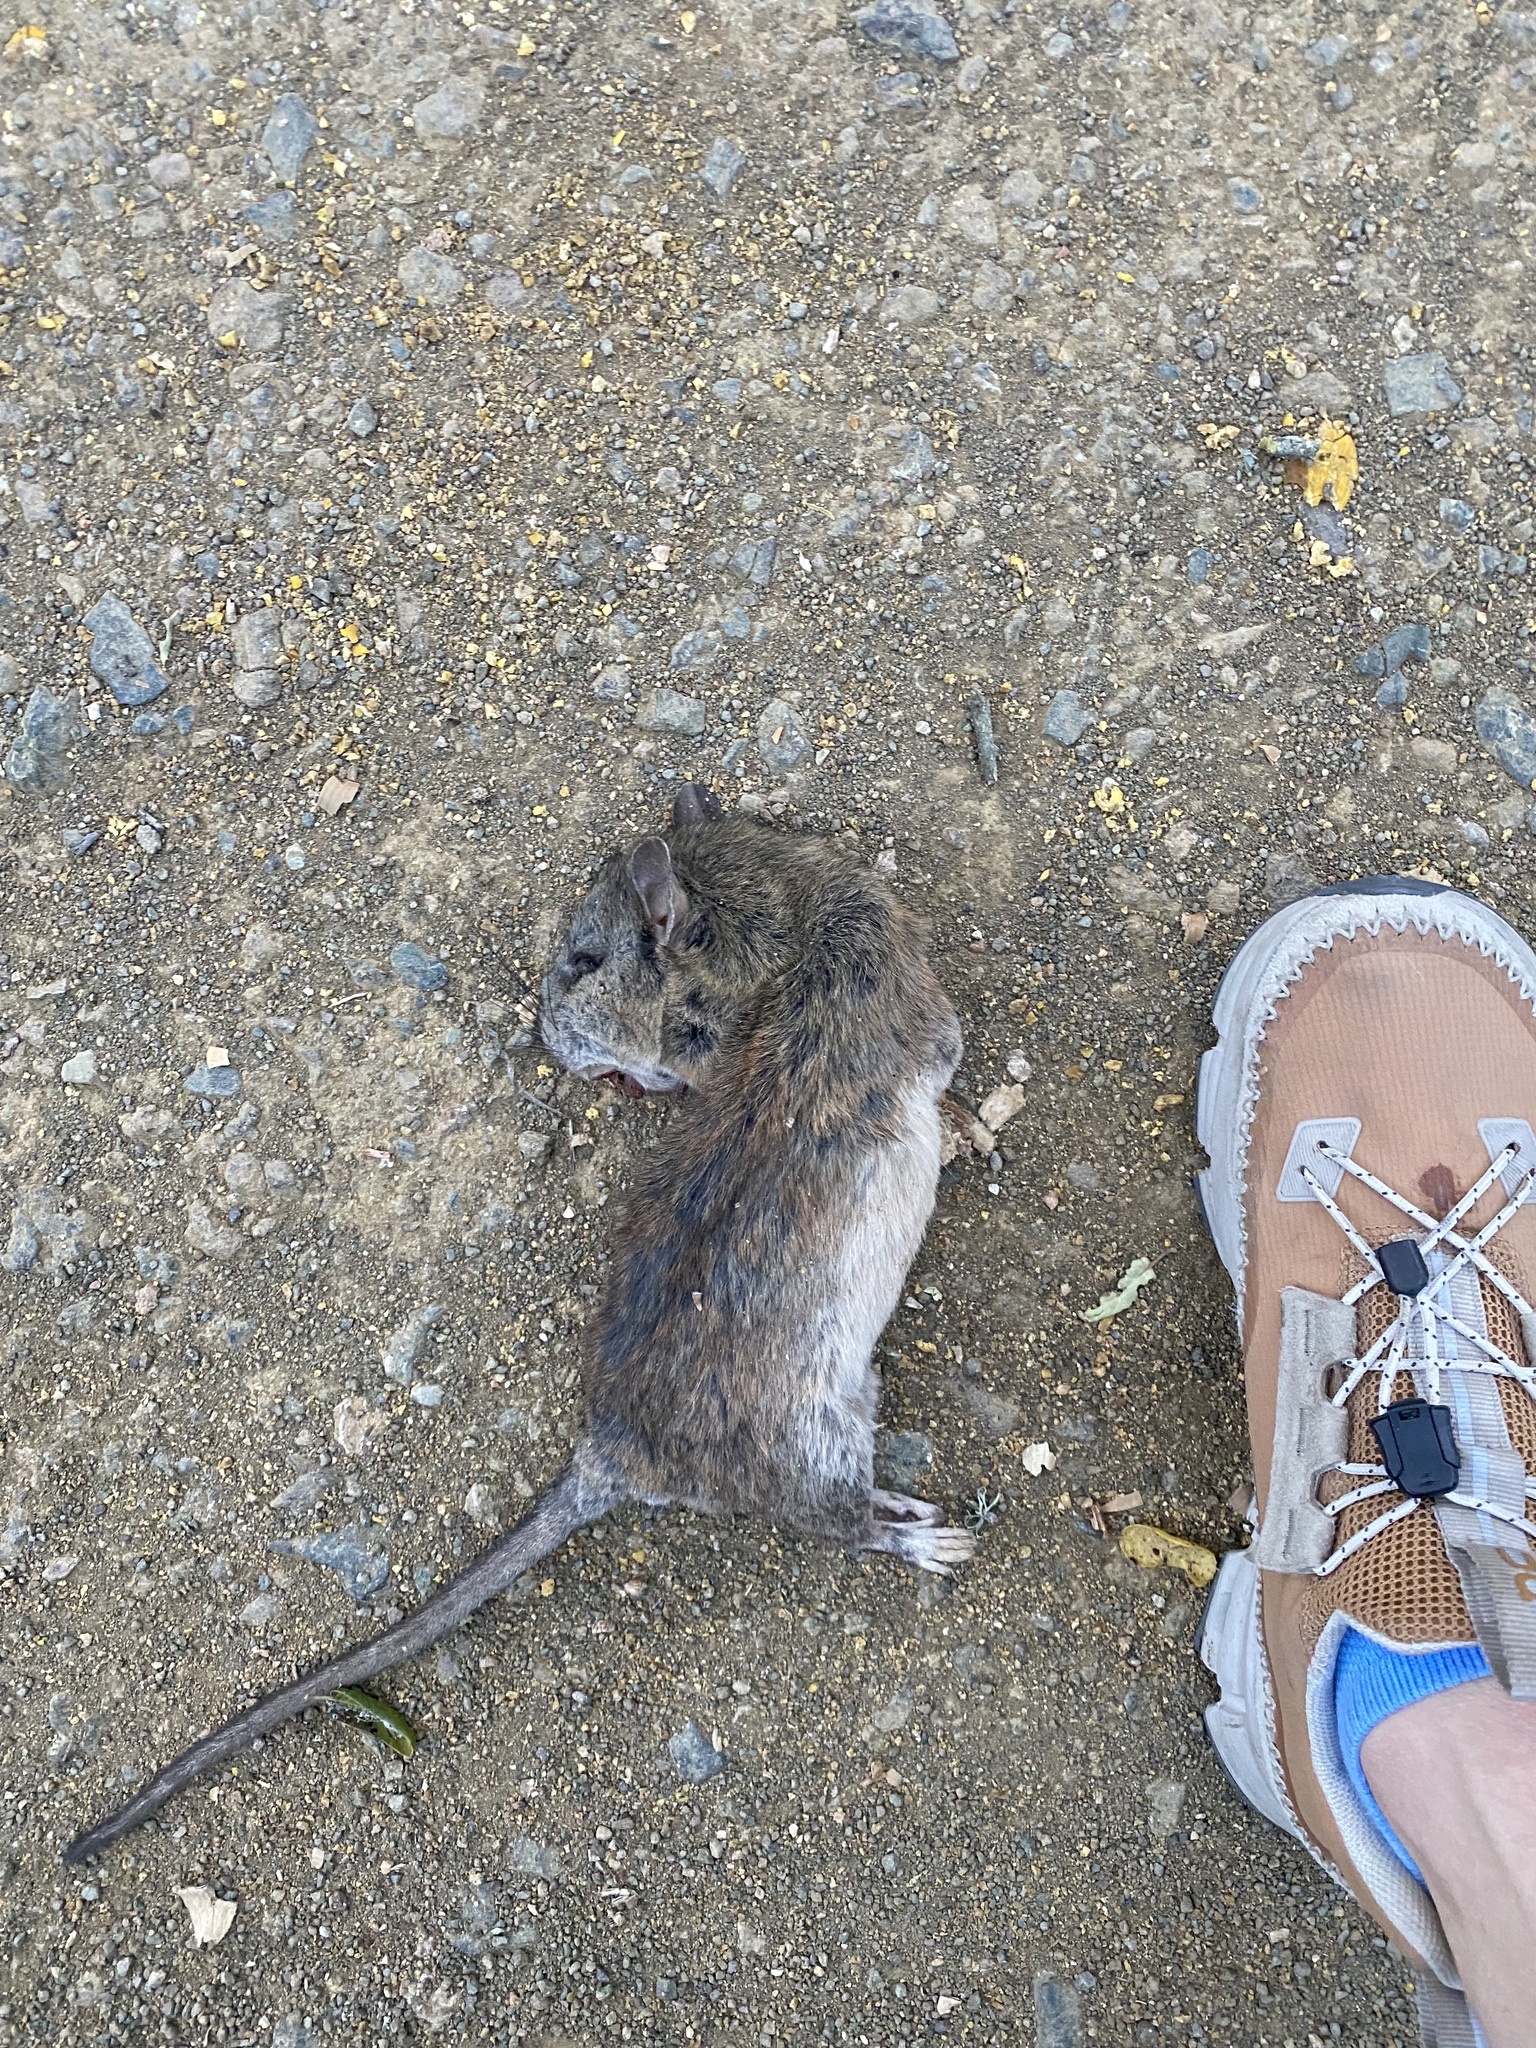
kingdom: Animalia
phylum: Chordata
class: Mammalia
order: Rodentia
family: Cricetidae
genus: Neotoma
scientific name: Neotoma fuscipes
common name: Dusky-footed woodrat
